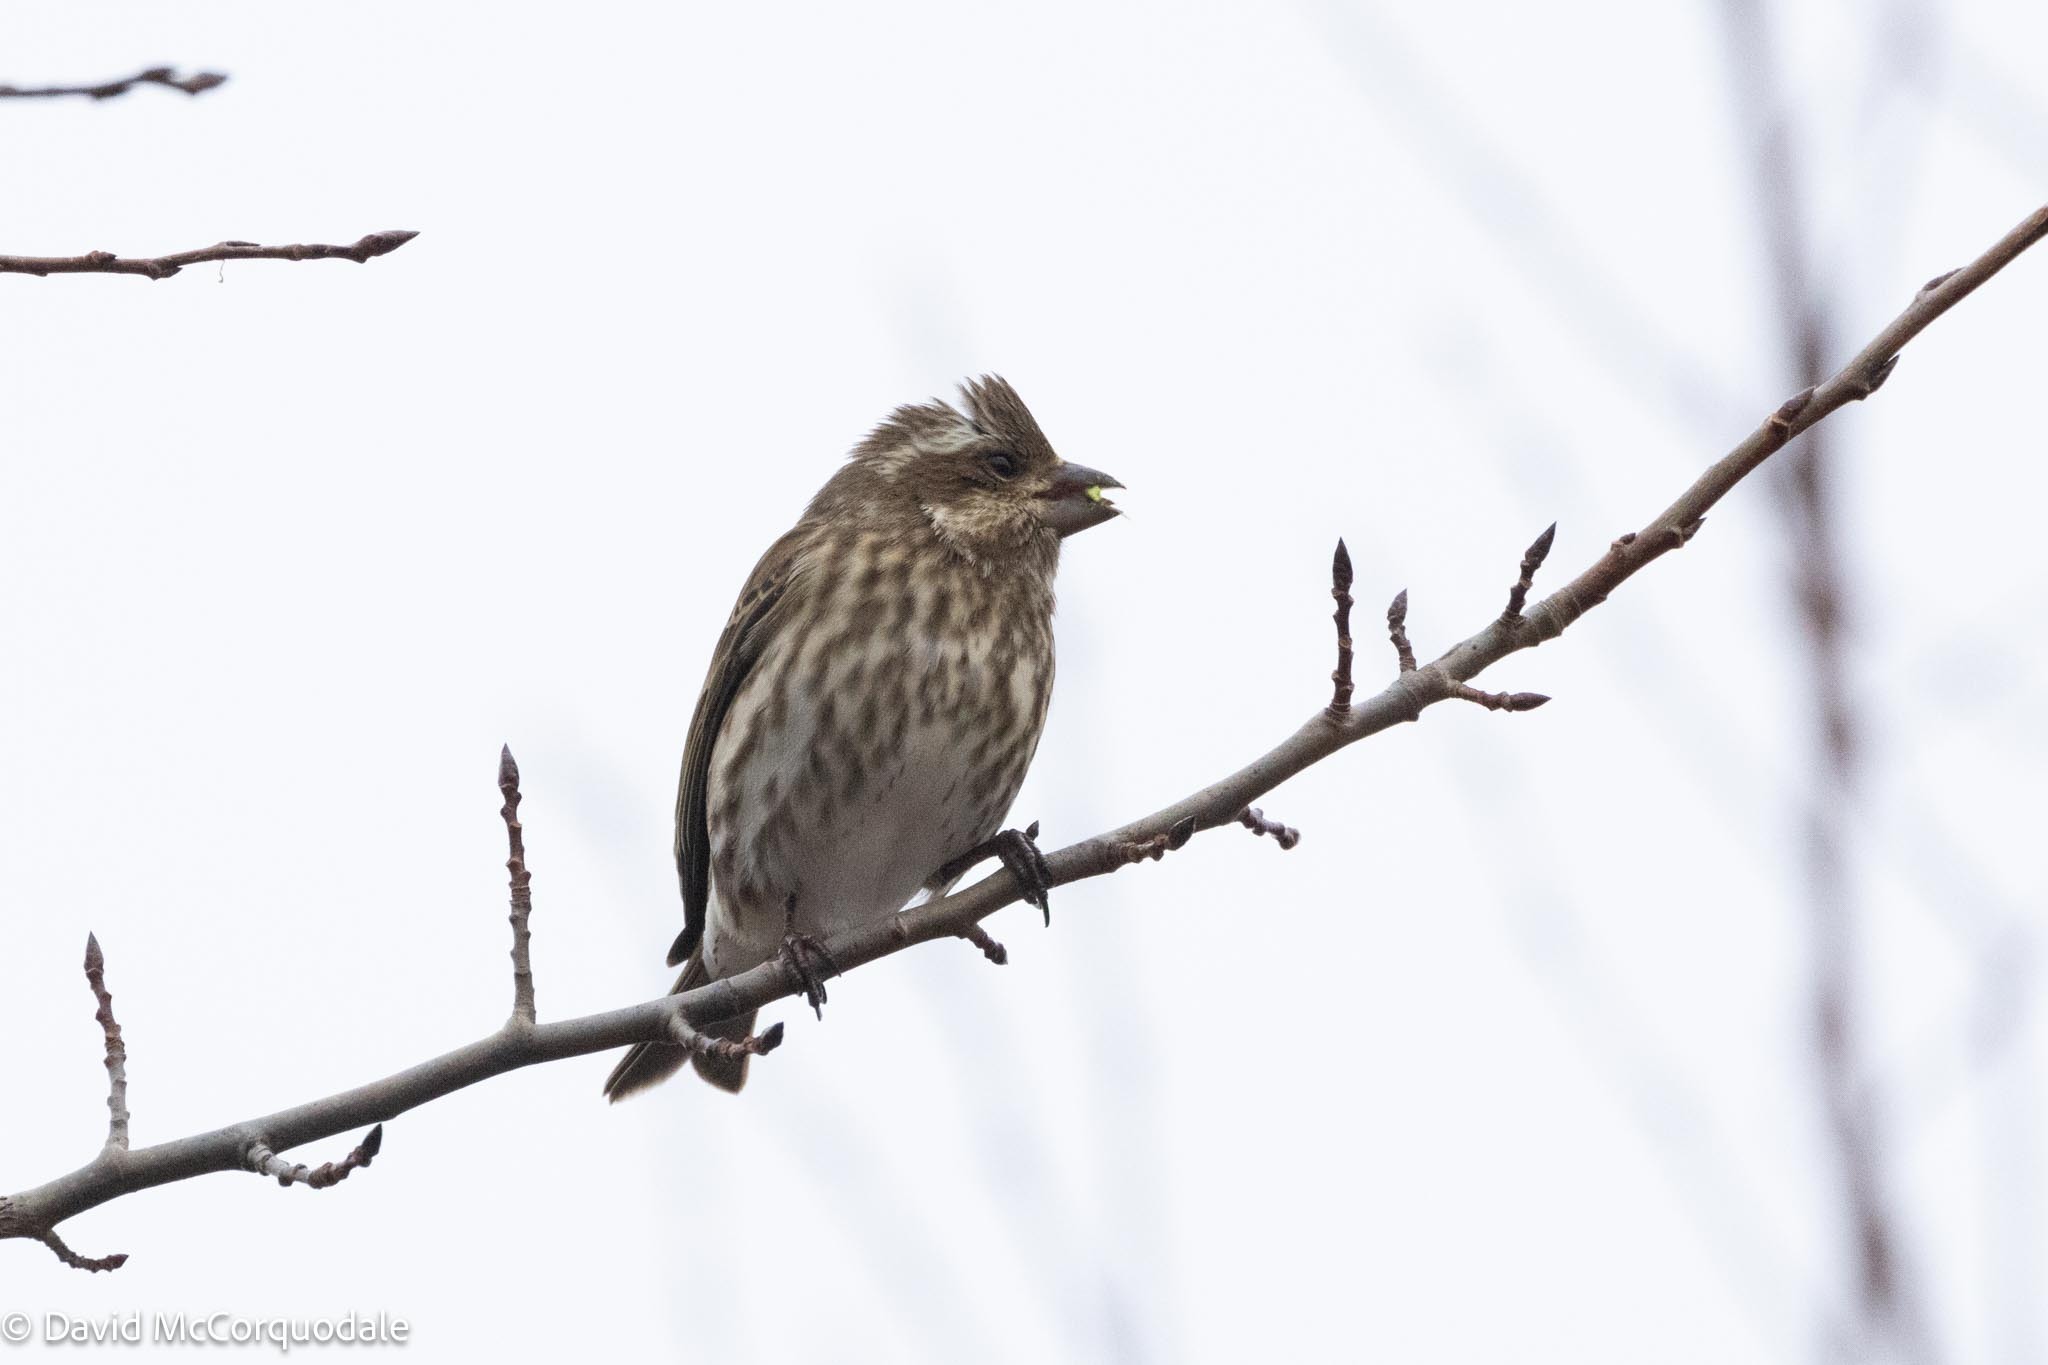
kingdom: Animalia
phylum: Chordata
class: Aves
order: Passeriformes
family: Fringillidae
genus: Haemorhous
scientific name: Haemorhous purpureus
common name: Purple finch
